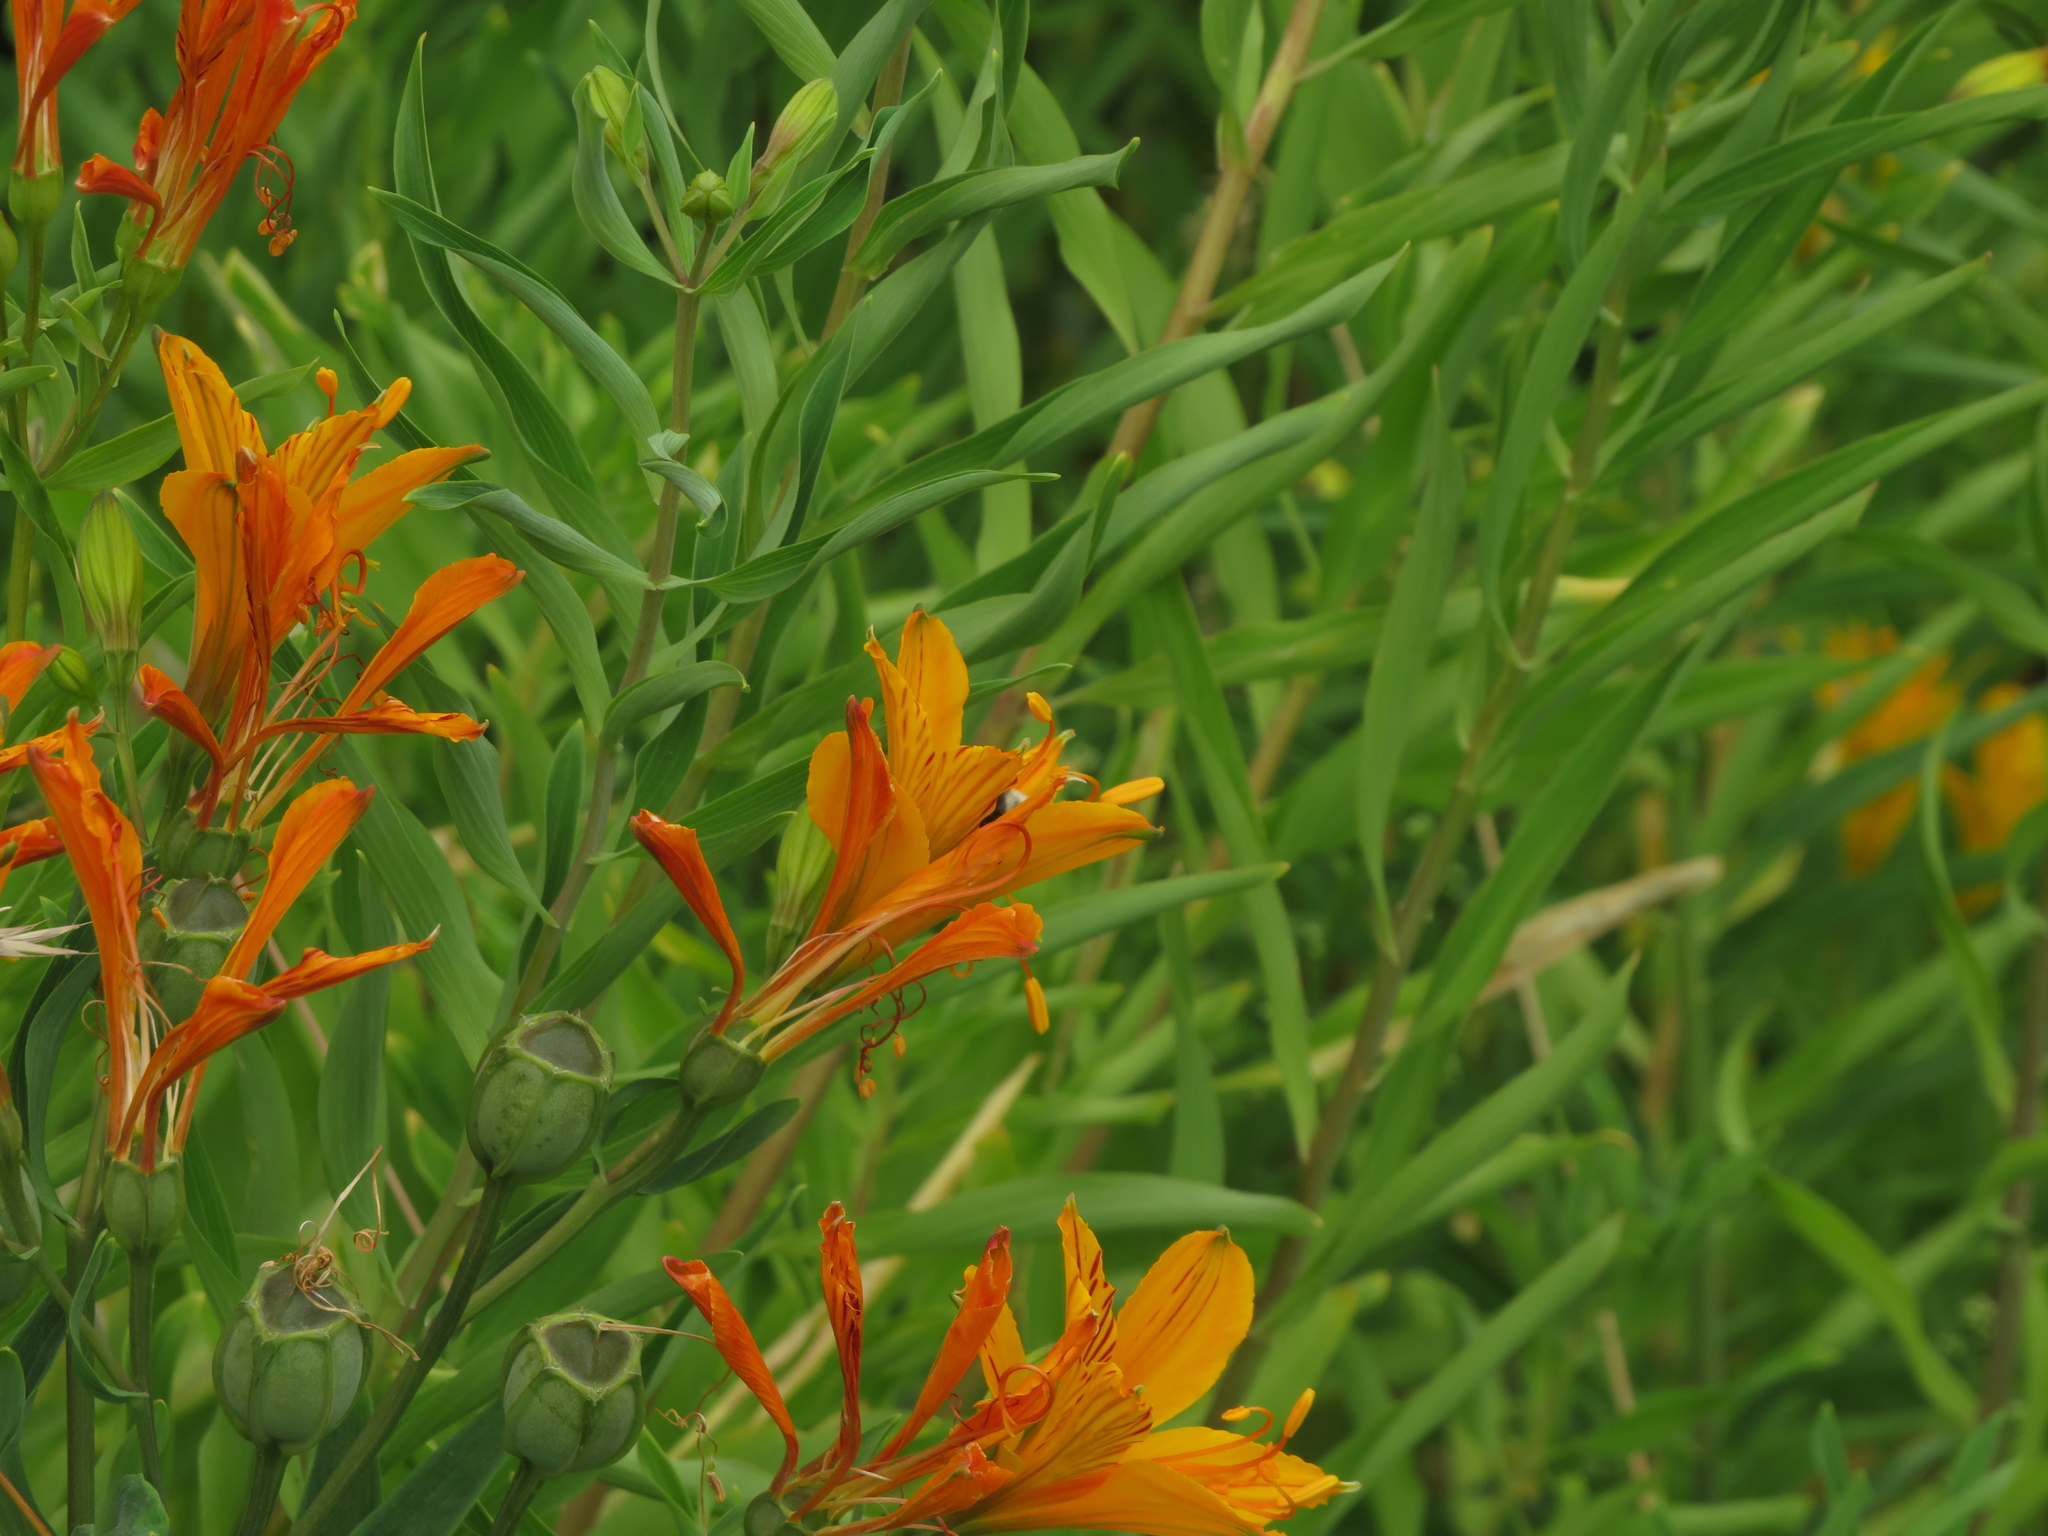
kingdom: Plantae
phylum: Tracheophyta
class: Liliopsida
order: Liliales
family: Alstroemeriaceae
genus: Alstroemeria
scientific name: Alstroemeria aurea
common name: Peruvian lily
